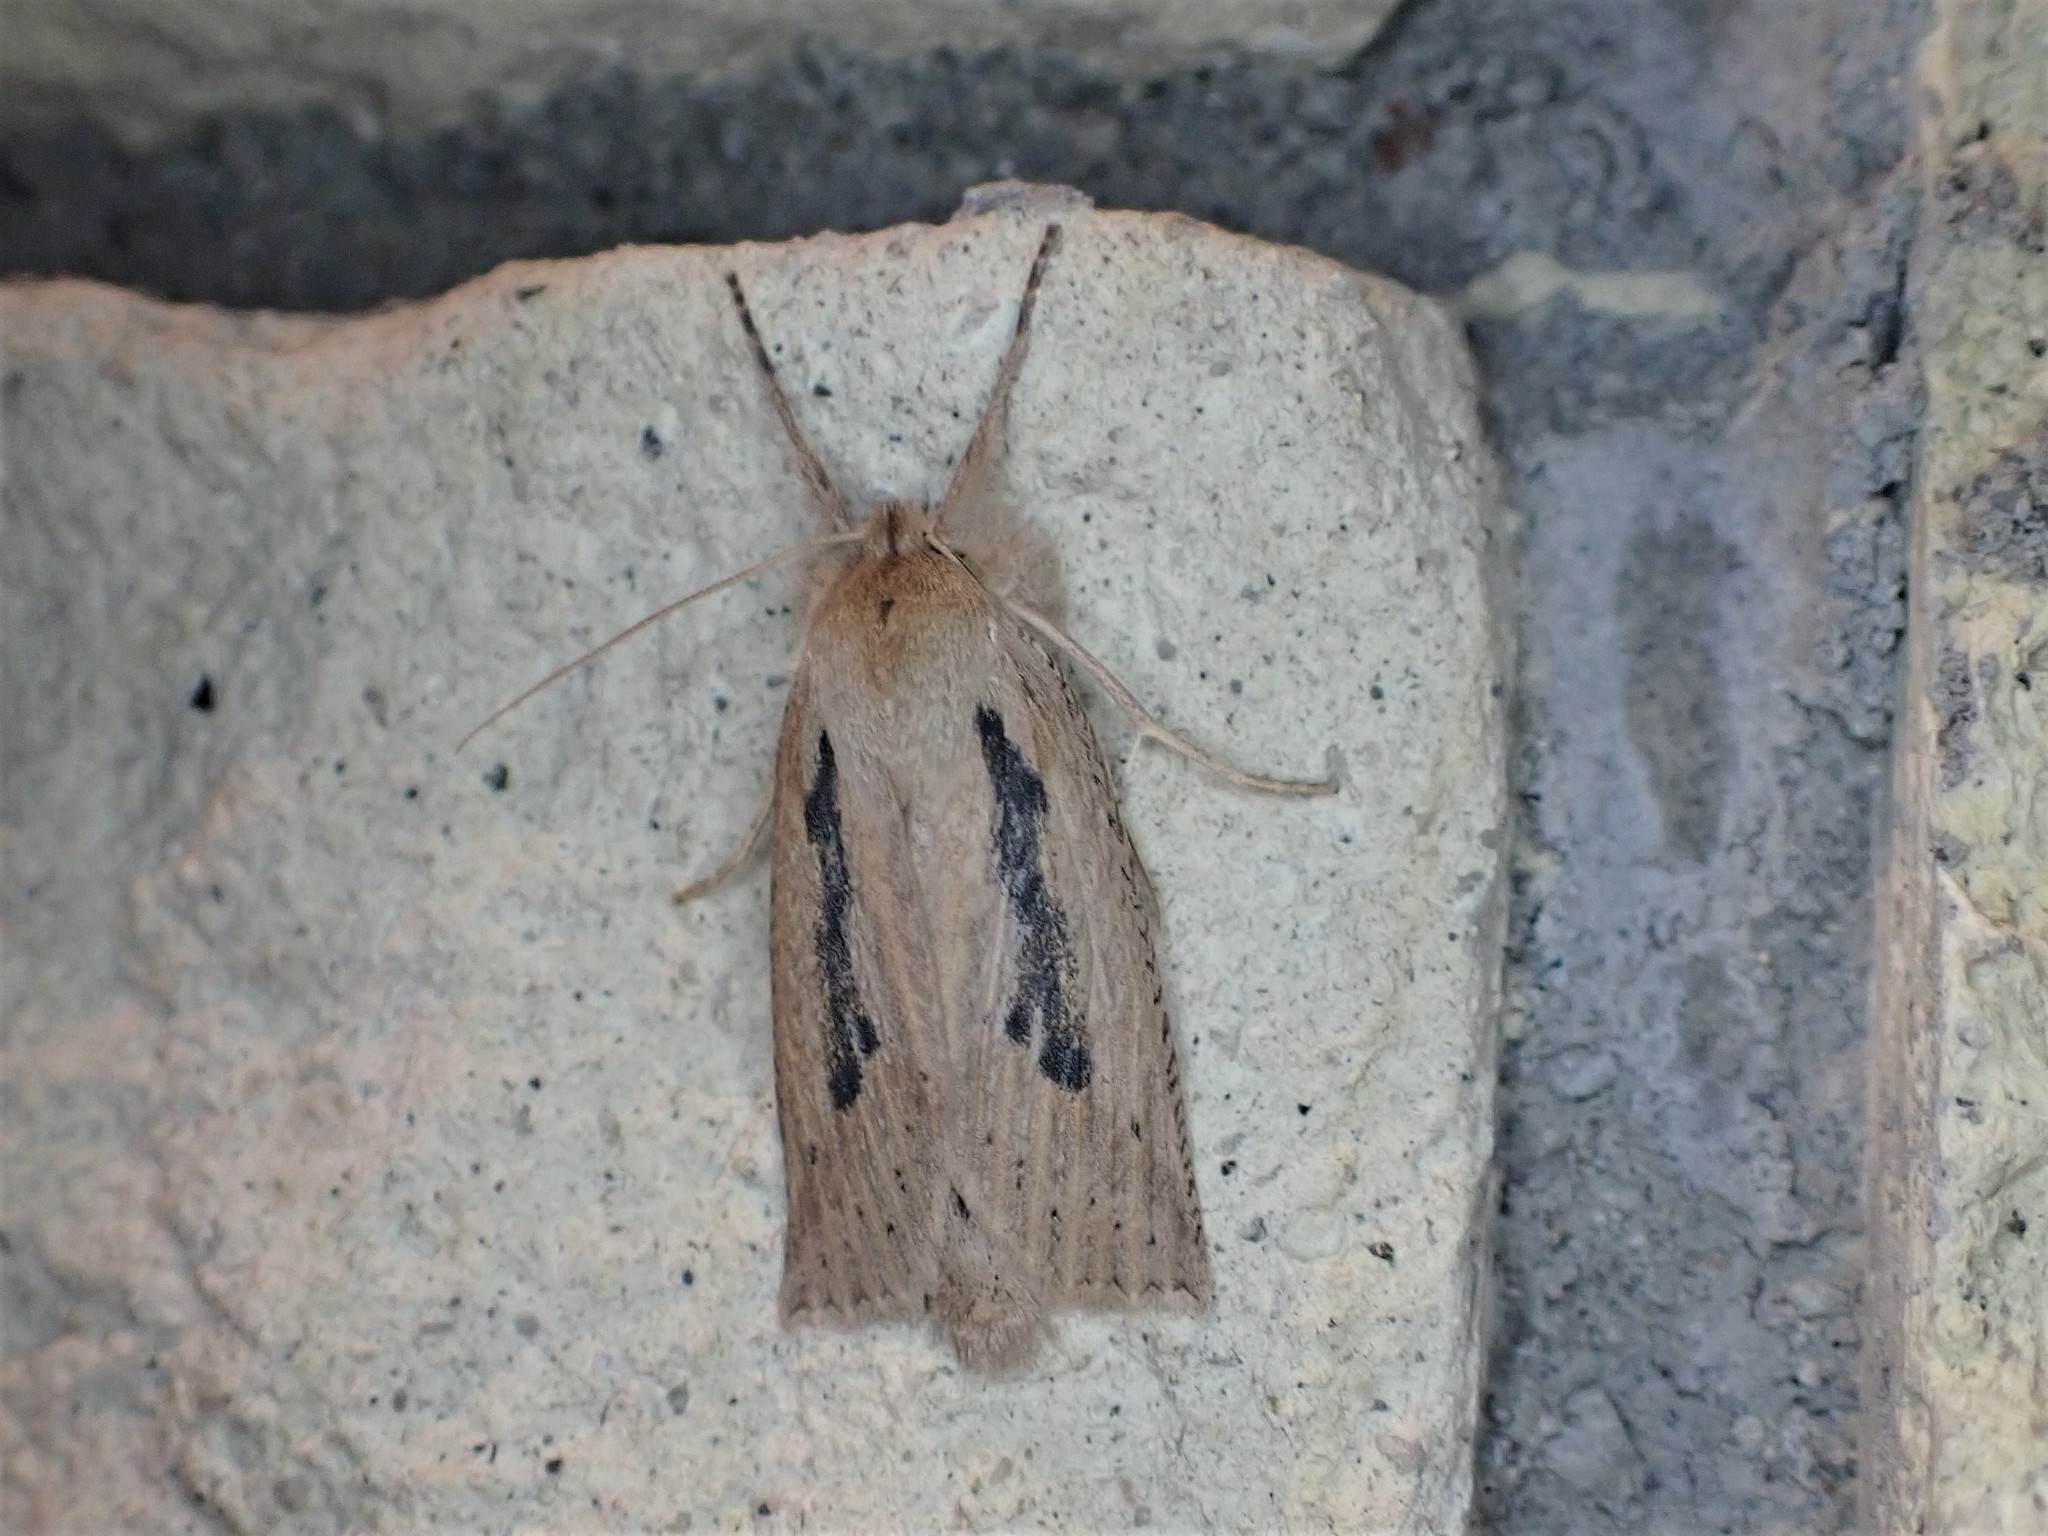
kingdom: Animalia
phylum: Arthropoda
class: Insecta
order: Lepidoptera
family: Geometridae
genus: Declana
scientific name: Declana leptomera
